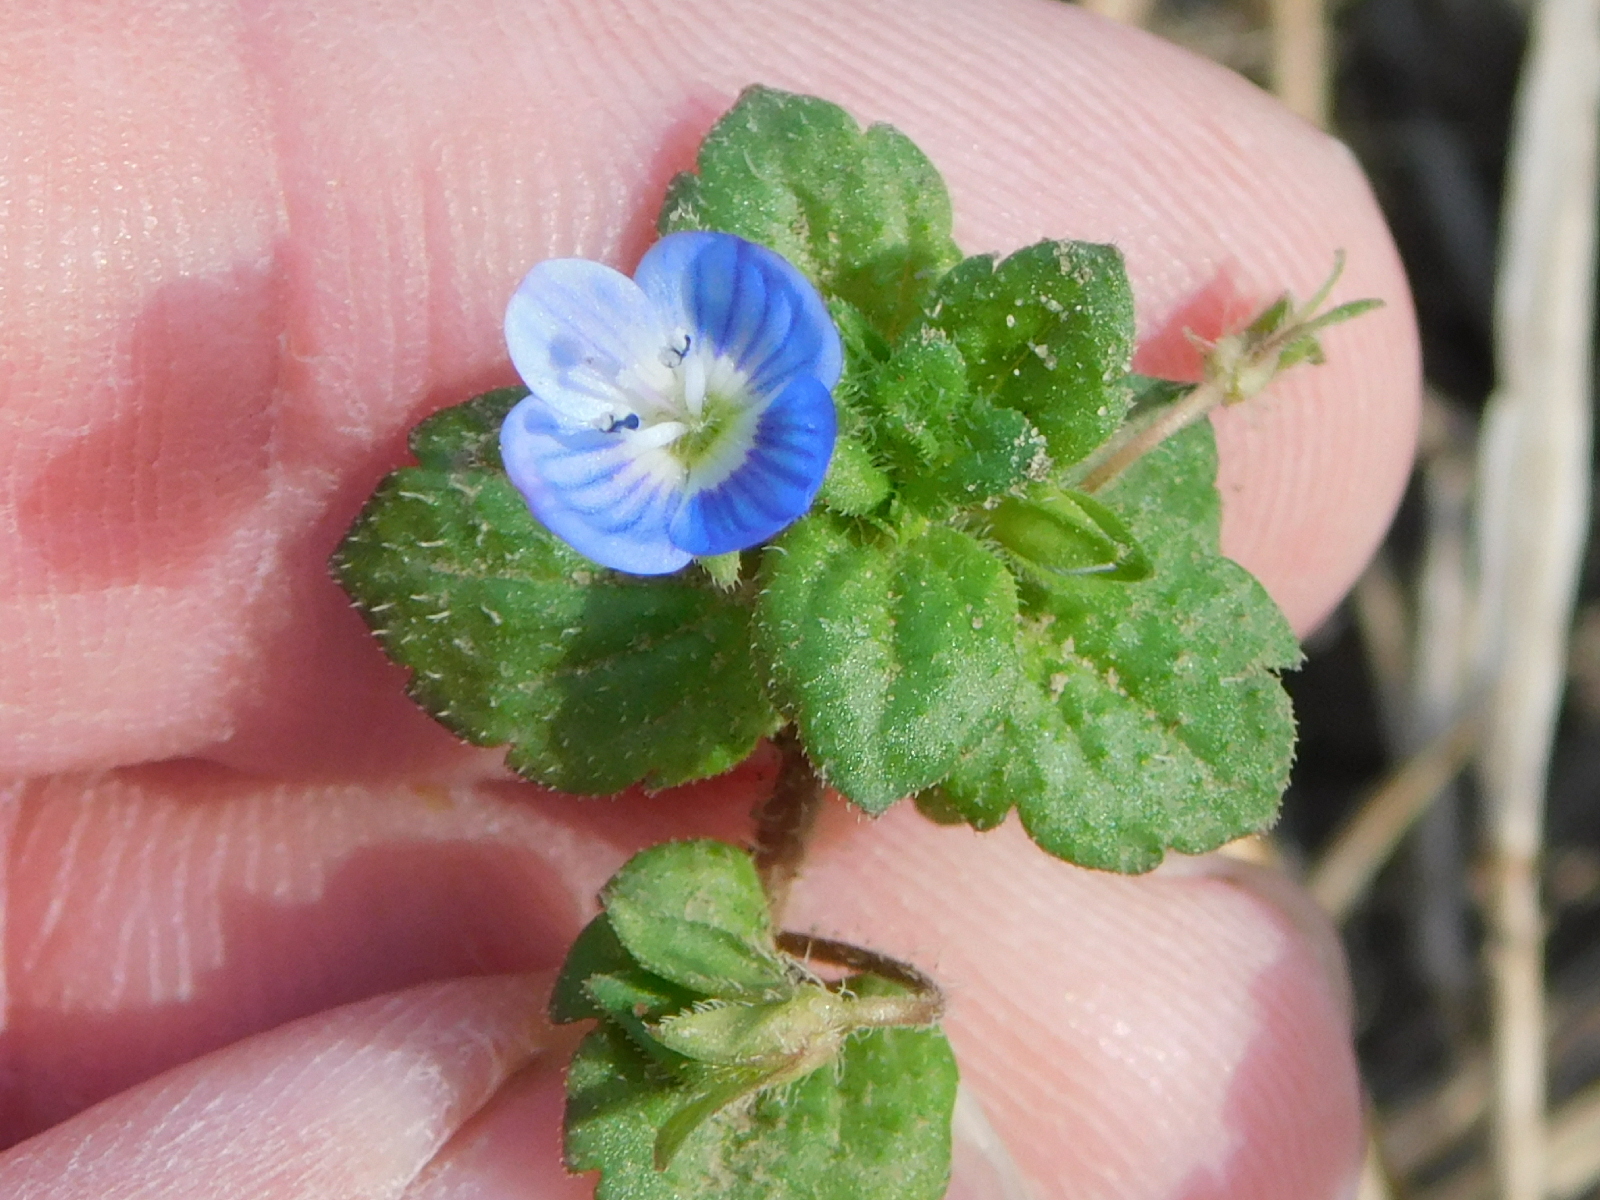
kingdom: Plantae
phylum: Tracheophyta
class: Magnoliopsida
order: Lamiales
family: Plantaginaceae
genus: Veronica
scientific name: Veronica persica
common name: Common field-speedwell
